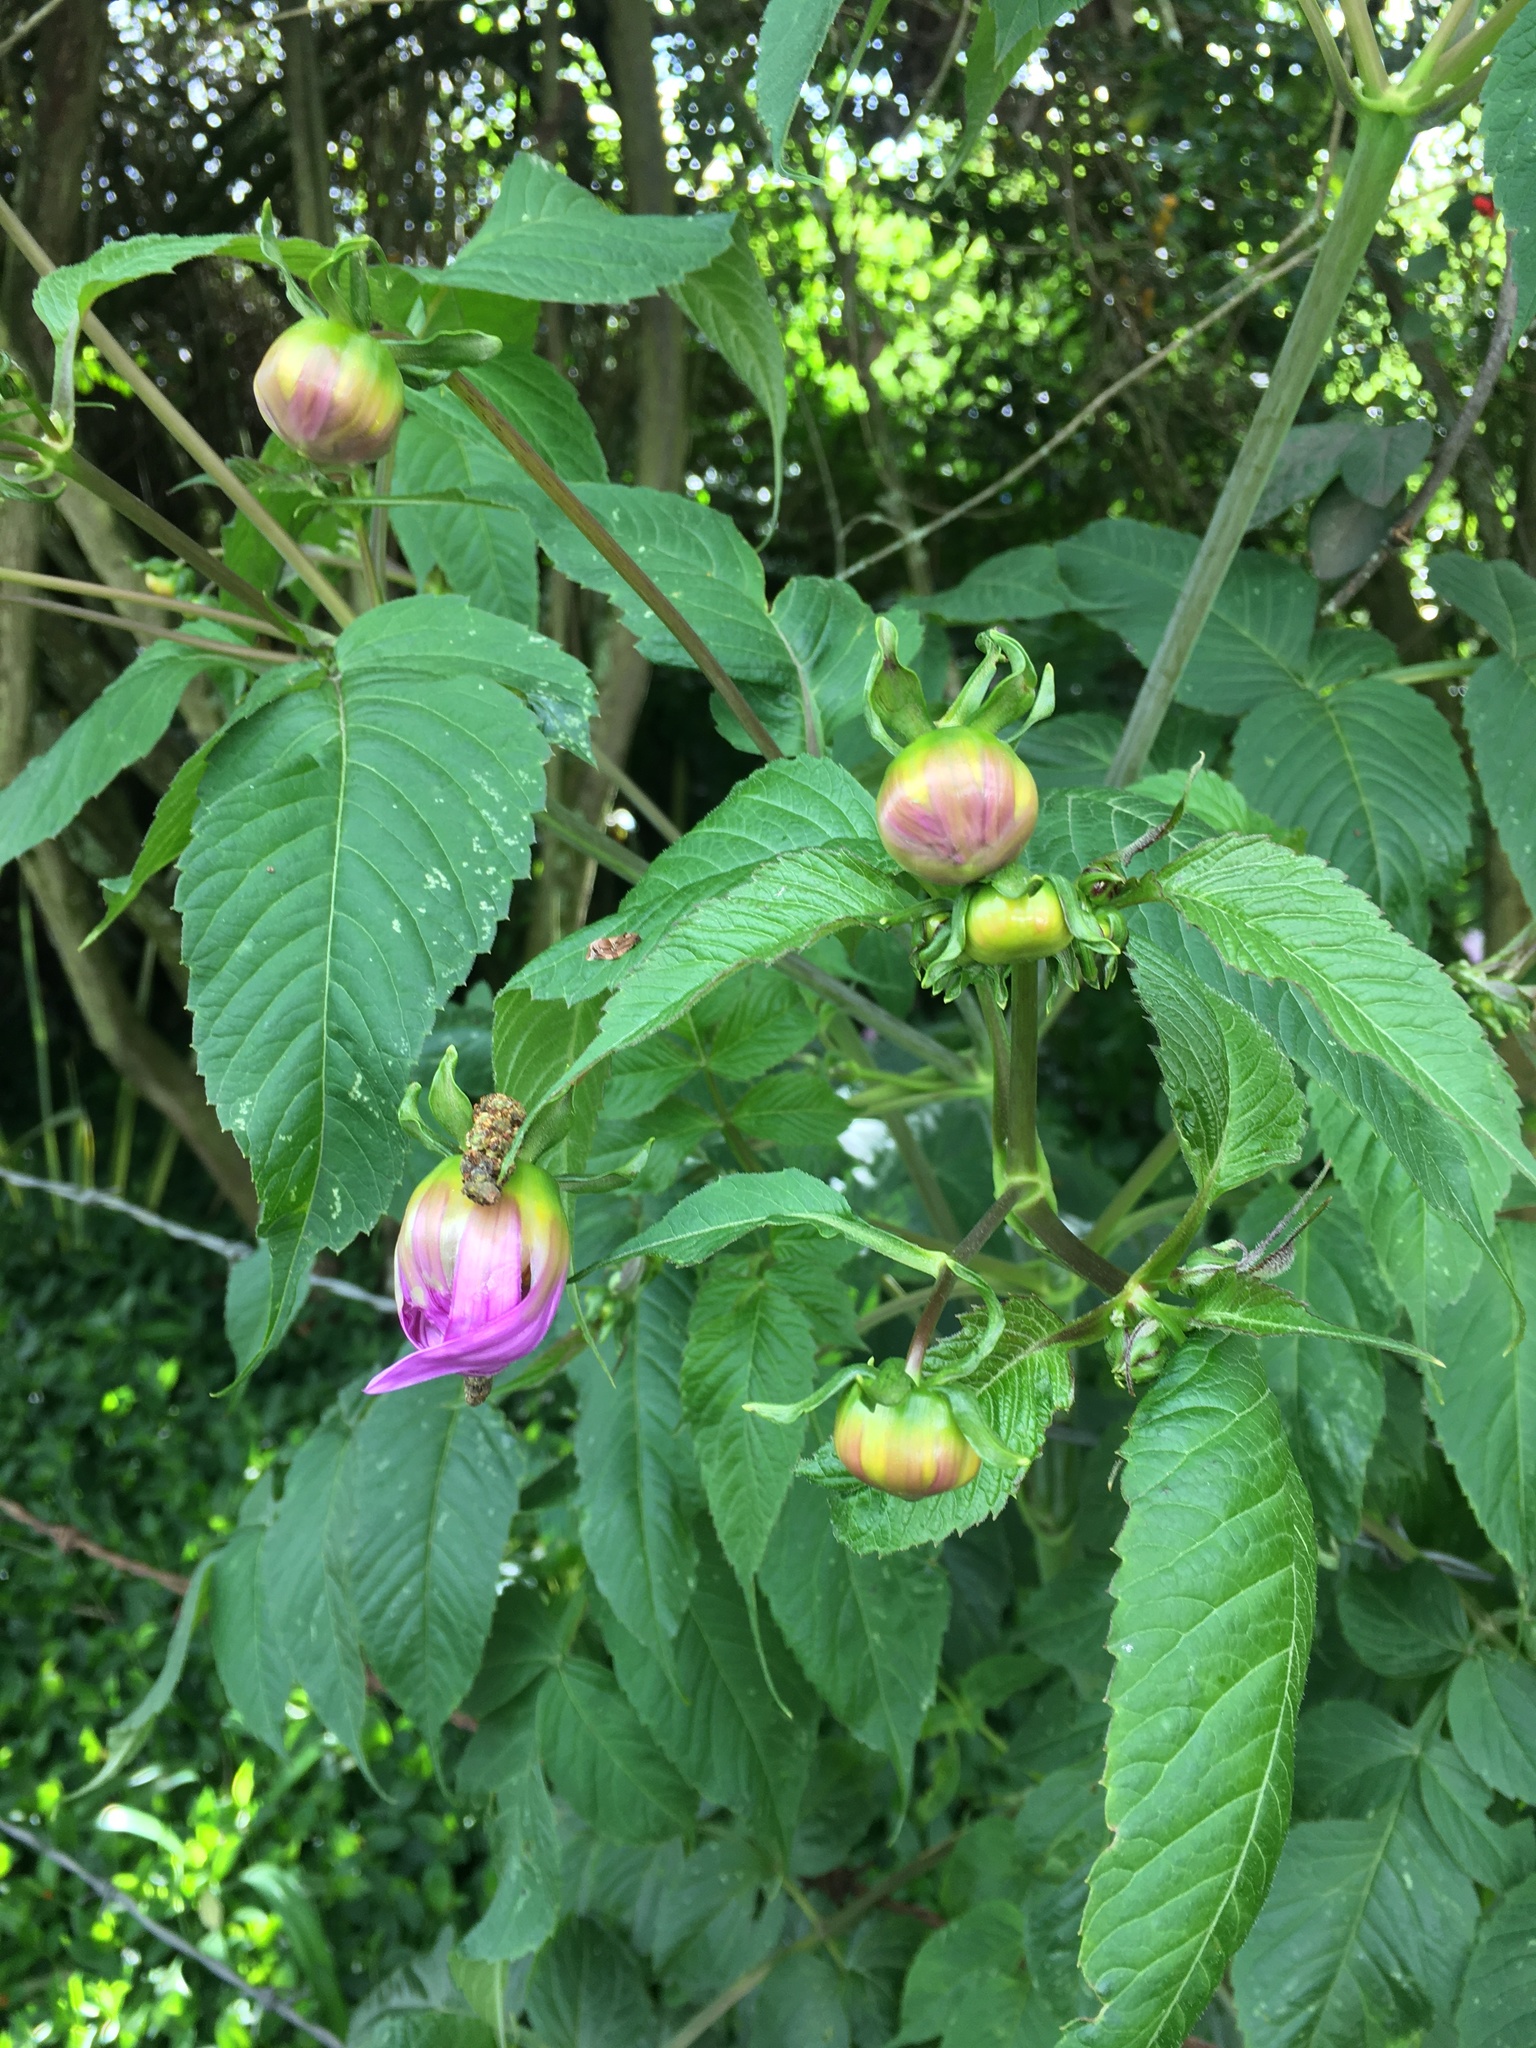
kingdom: Plantae
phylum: Tracheophyta
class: Magnoliopsida
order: Asterales
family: Asteraceae
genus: Dahlia
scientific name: Dahlia imperialis
